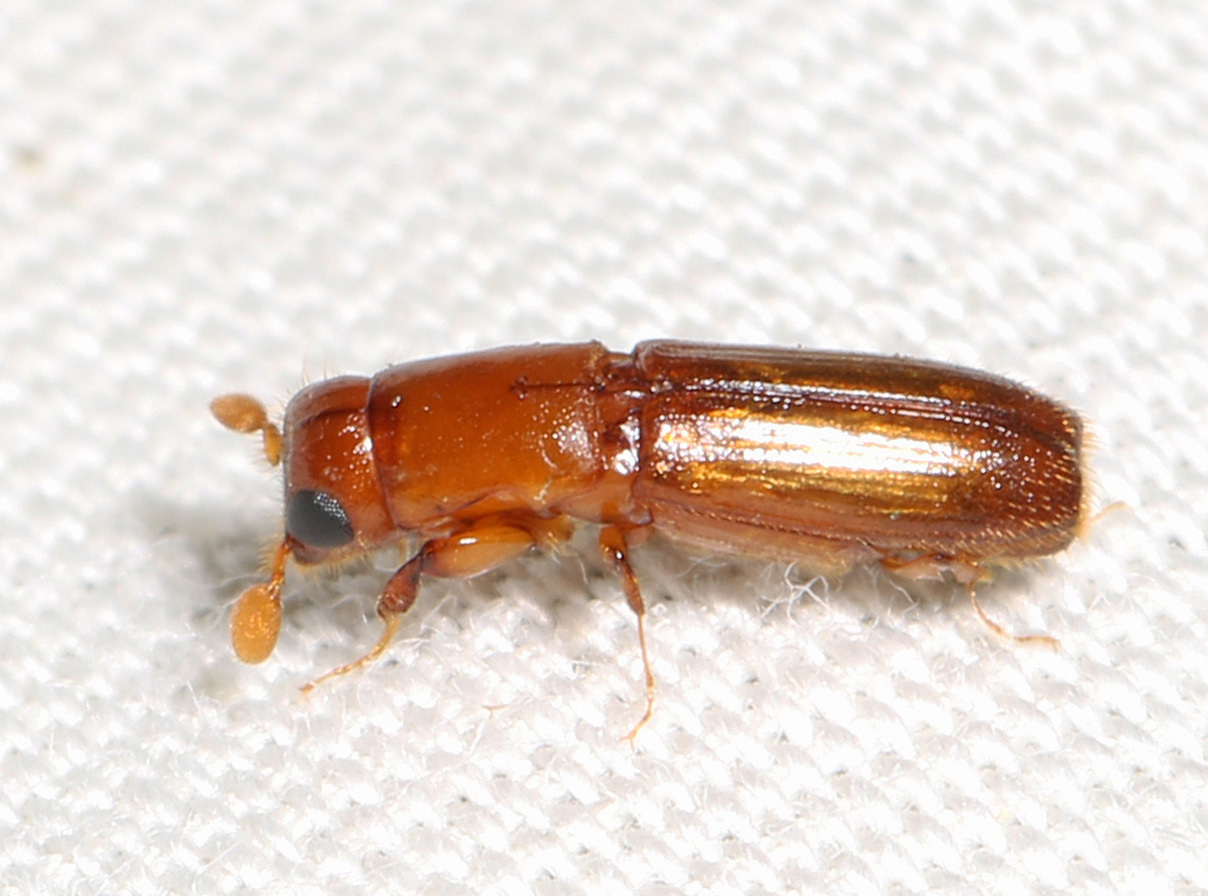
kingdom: Animalia
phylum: Arthropoda
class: Insecta
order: Coleoptera
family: Curculionidae
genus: Euplatypus
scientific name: Euplatypus compositus
